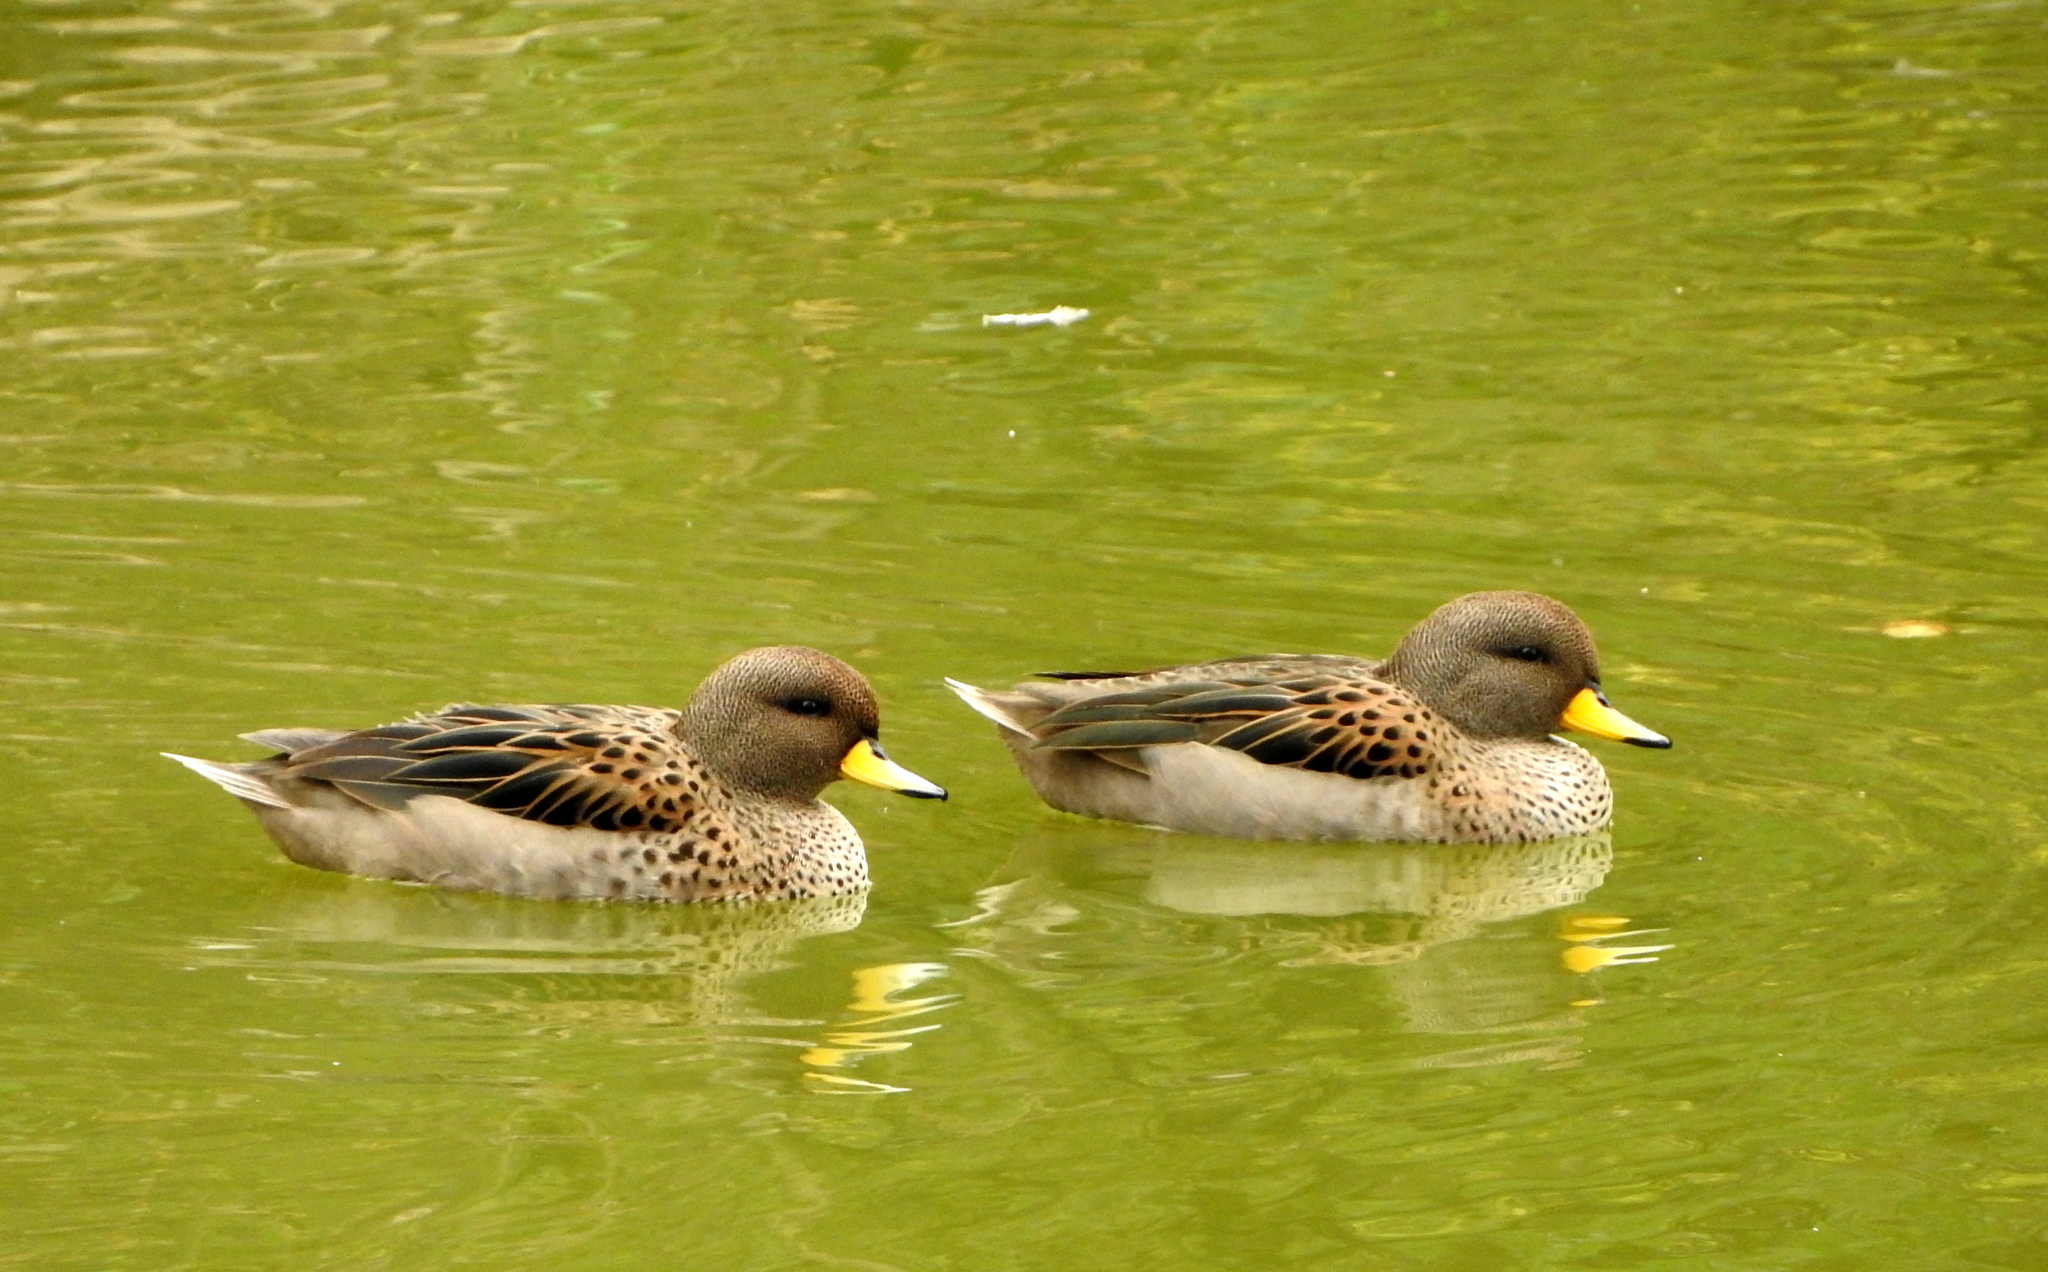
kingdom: Animalia
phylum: Chordata
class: Aves
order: Anseriformes
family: Anatidae
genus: Anas
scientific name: Anas flavirostris
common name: Yellow-billed teal
